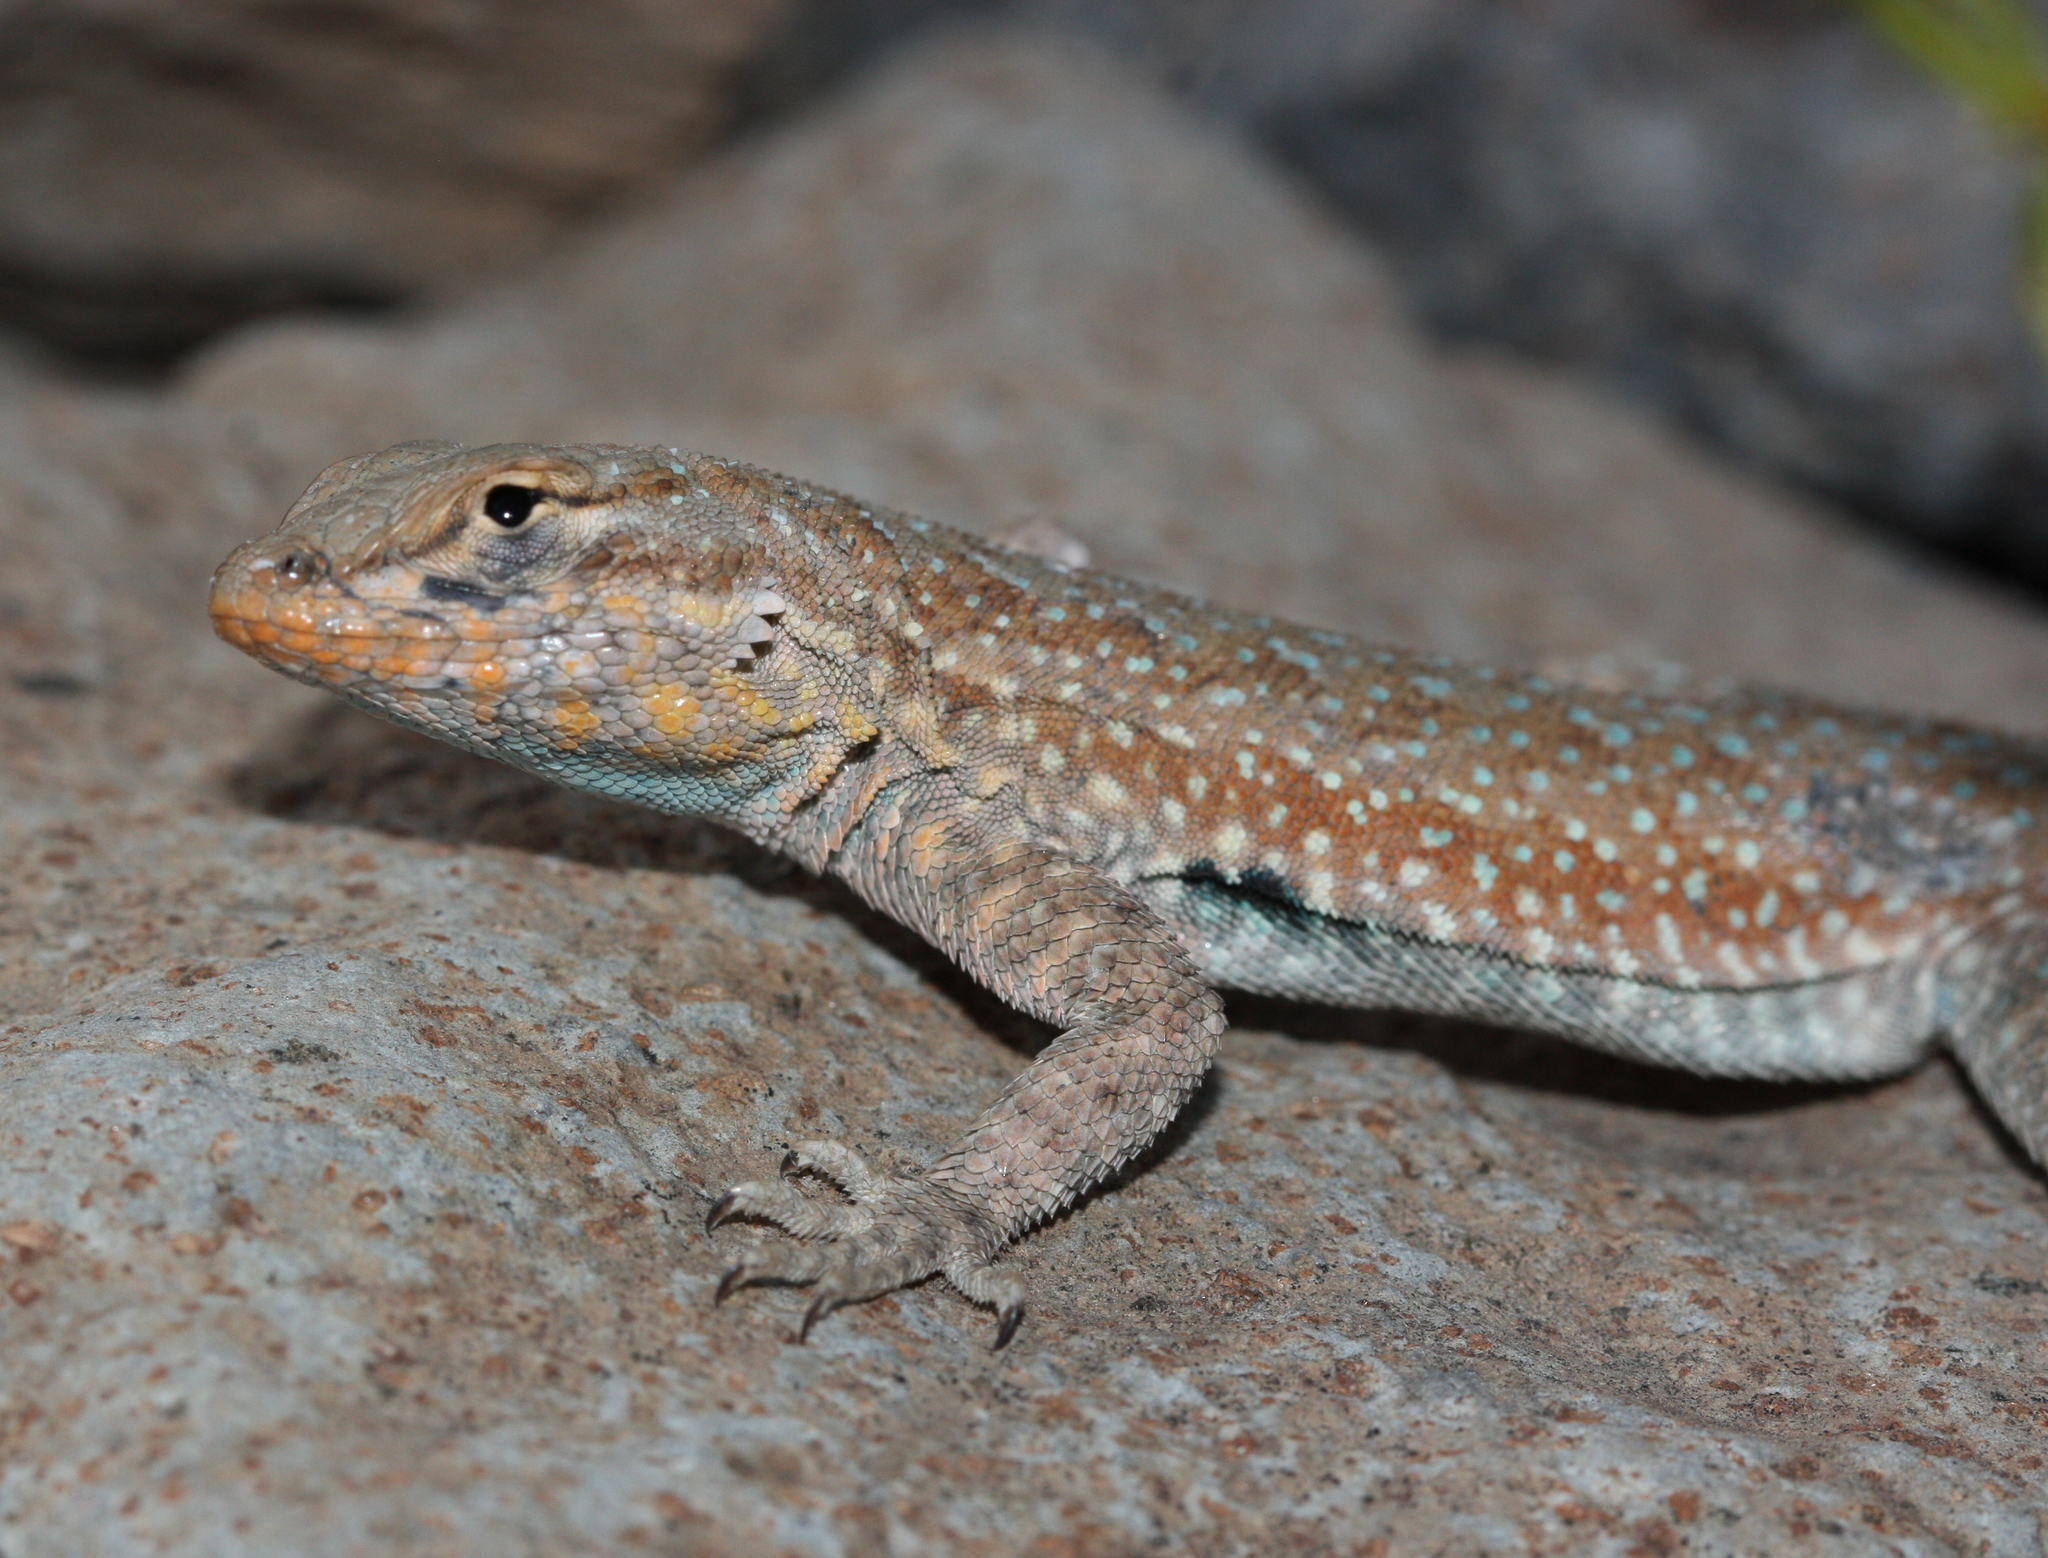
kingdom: Animalia
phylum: Chordata
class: Squamata
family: Phrynosomatidae
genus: Uta
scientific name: Uta stansburiana
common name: Side-blotched lizard
